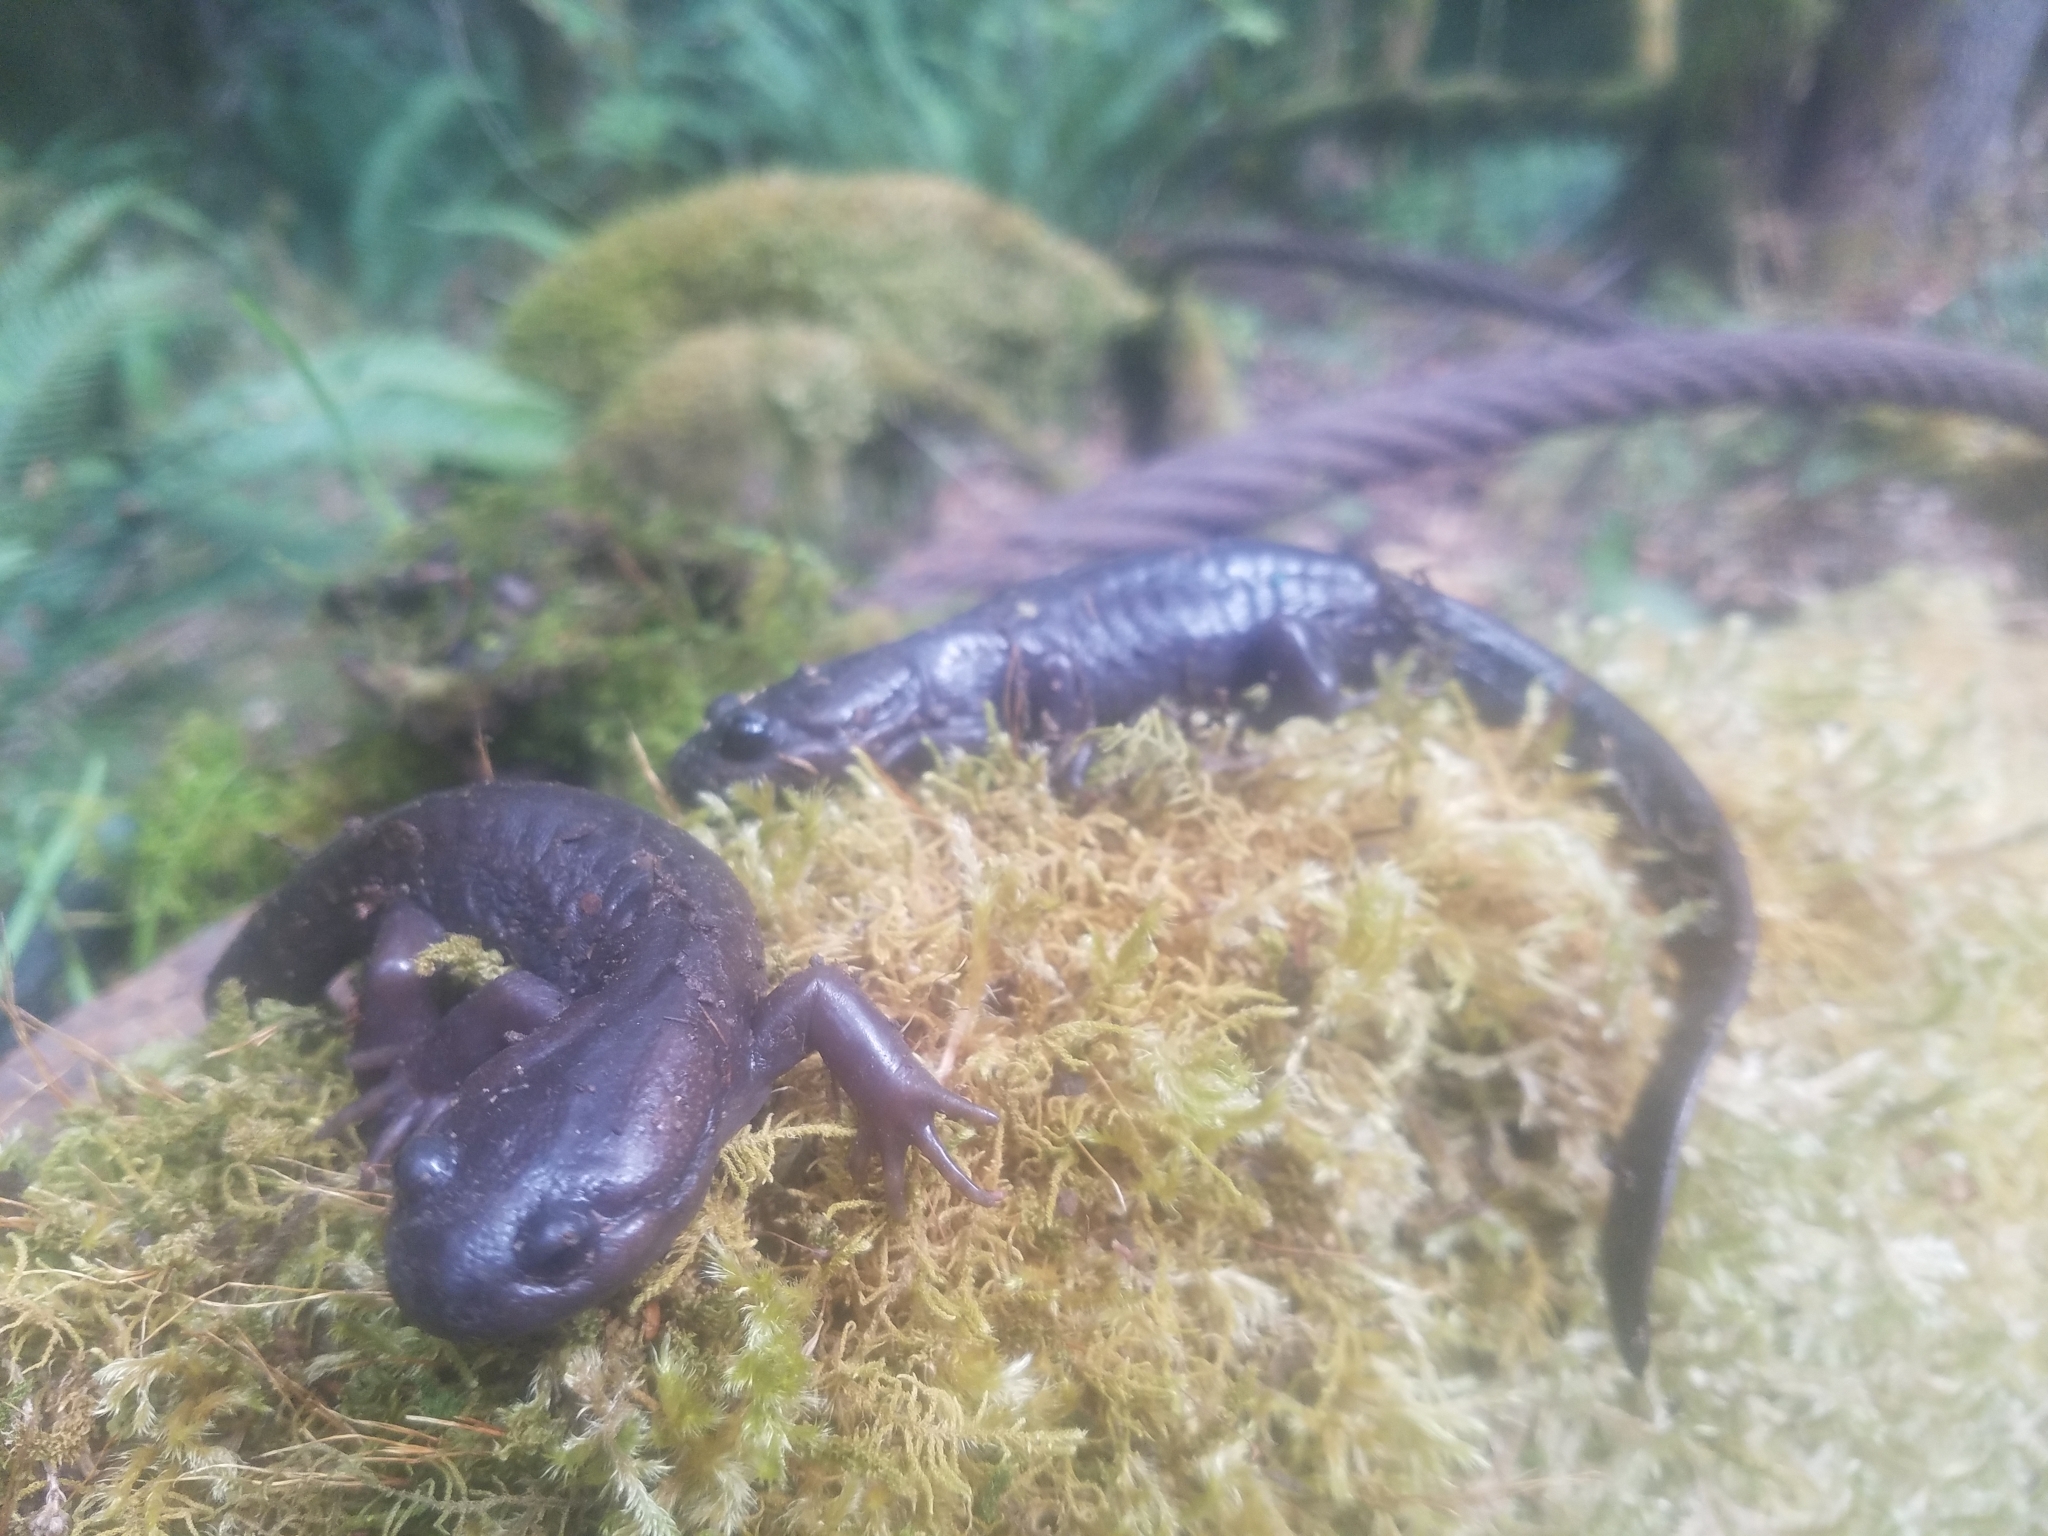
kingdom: Animalia
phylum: Chordata
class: Amphibia
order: Caudata
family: Ambystomatidae
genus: Ambystoma
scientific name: Ambystoma gracile
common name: Northwestern salamander
